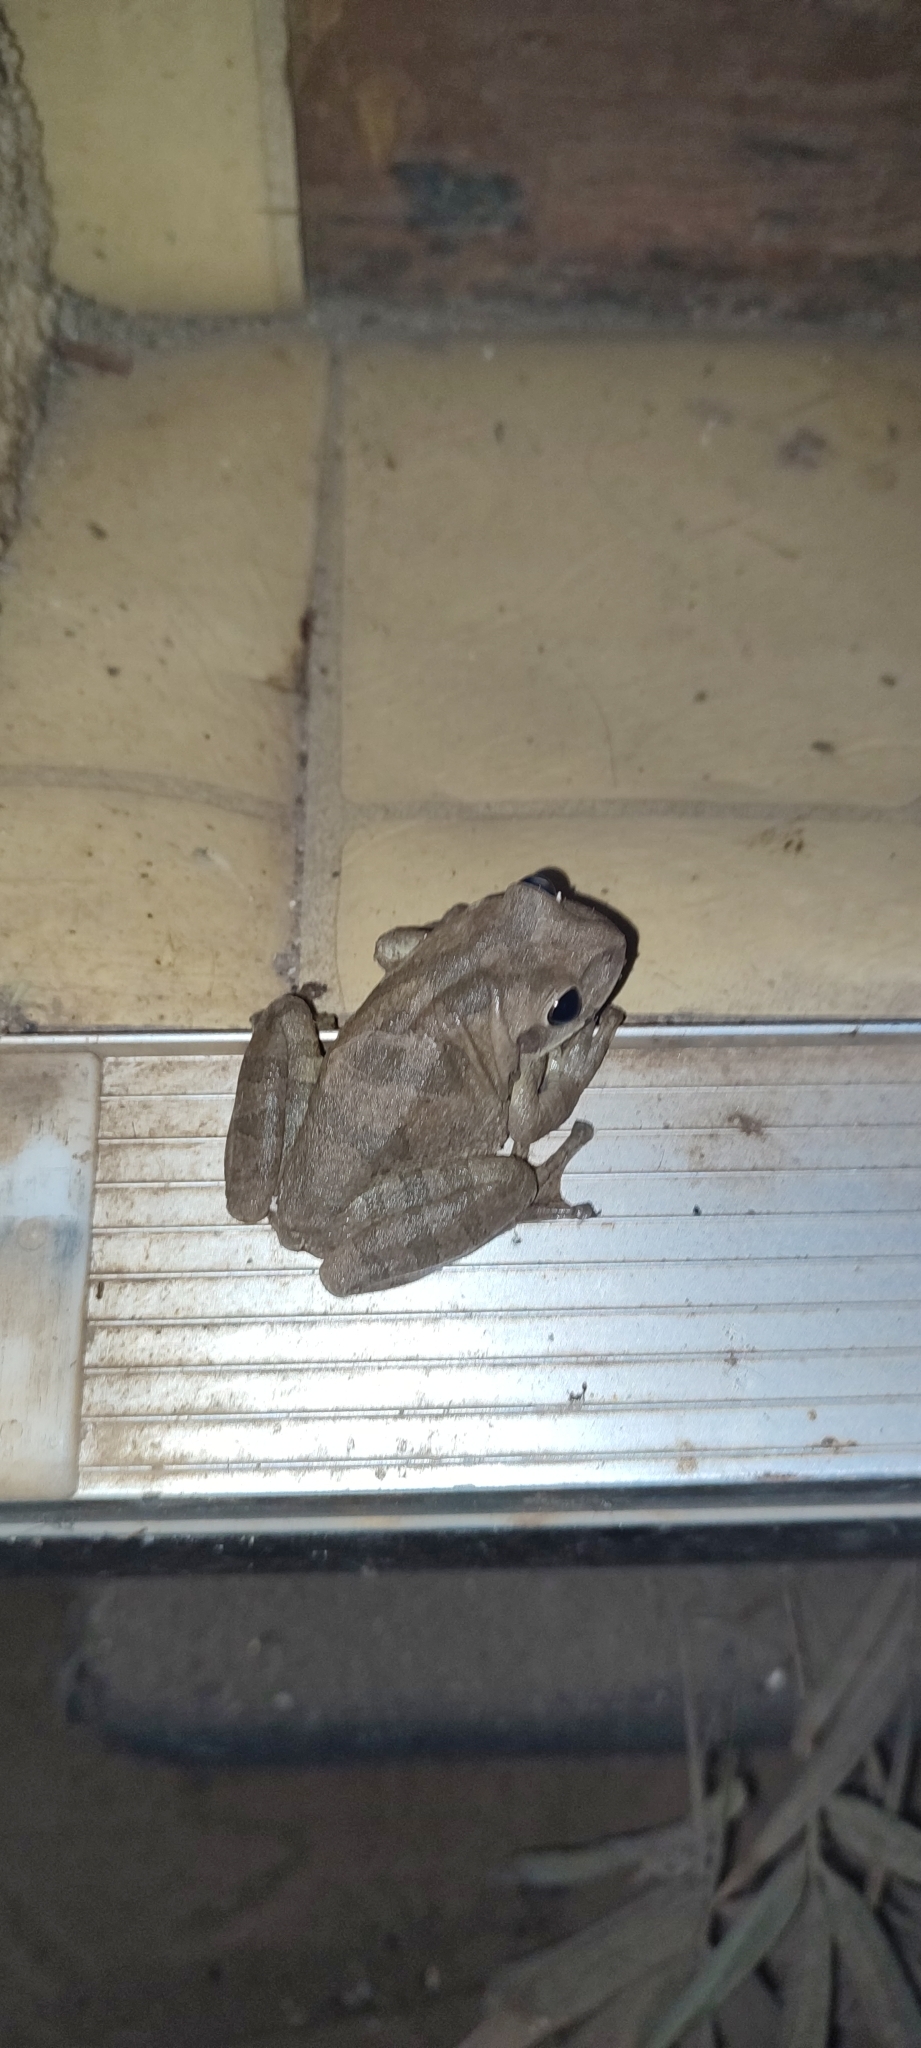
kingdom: Animalia
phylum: Chordata
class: Amphibia
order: Anura
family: Hylidae
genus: Smilisca
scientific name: Smilisca baudinii
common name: Mexican smilisca
